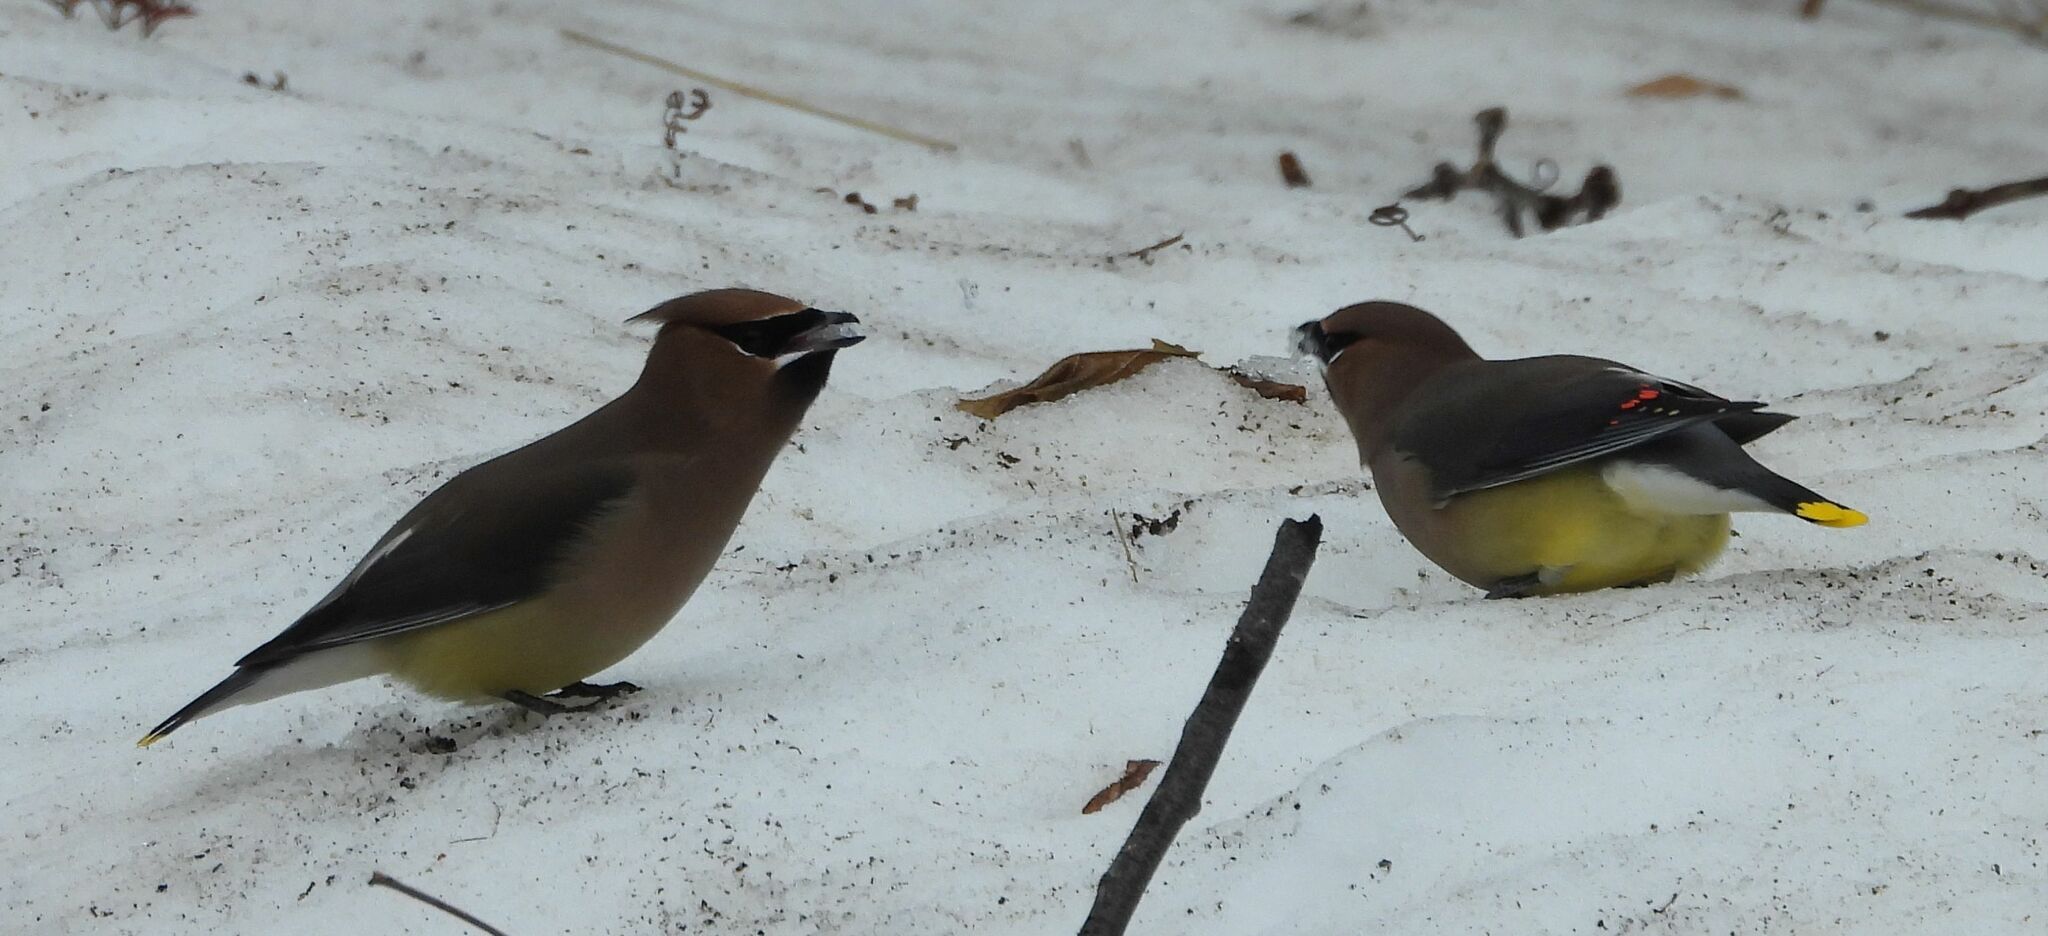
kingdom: Animalia
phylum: Chordata
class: Aves
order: Passeriformes
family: Bombycillidae
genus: Bombycilla
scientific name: Bombycilla cedrorum
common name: Cedar waxwing
